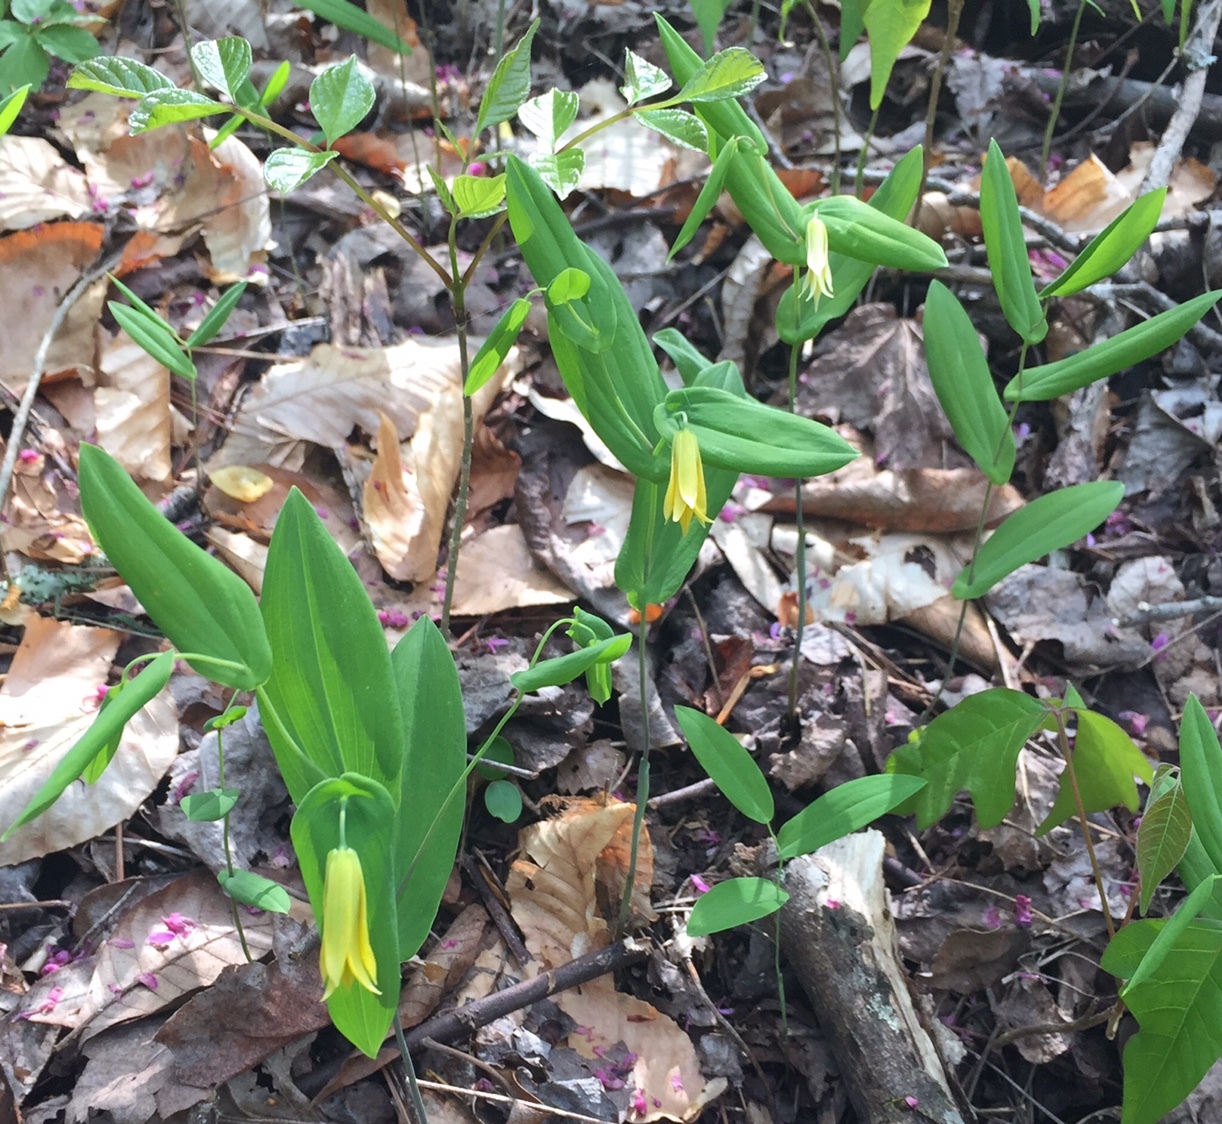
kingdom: Plantae
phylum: Tracheophyta
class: Liliopsida
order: Liliales
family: Colchicaceae
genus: Uvularia
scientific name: Uvularia perfoliata
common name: Perfoliate bellwort
